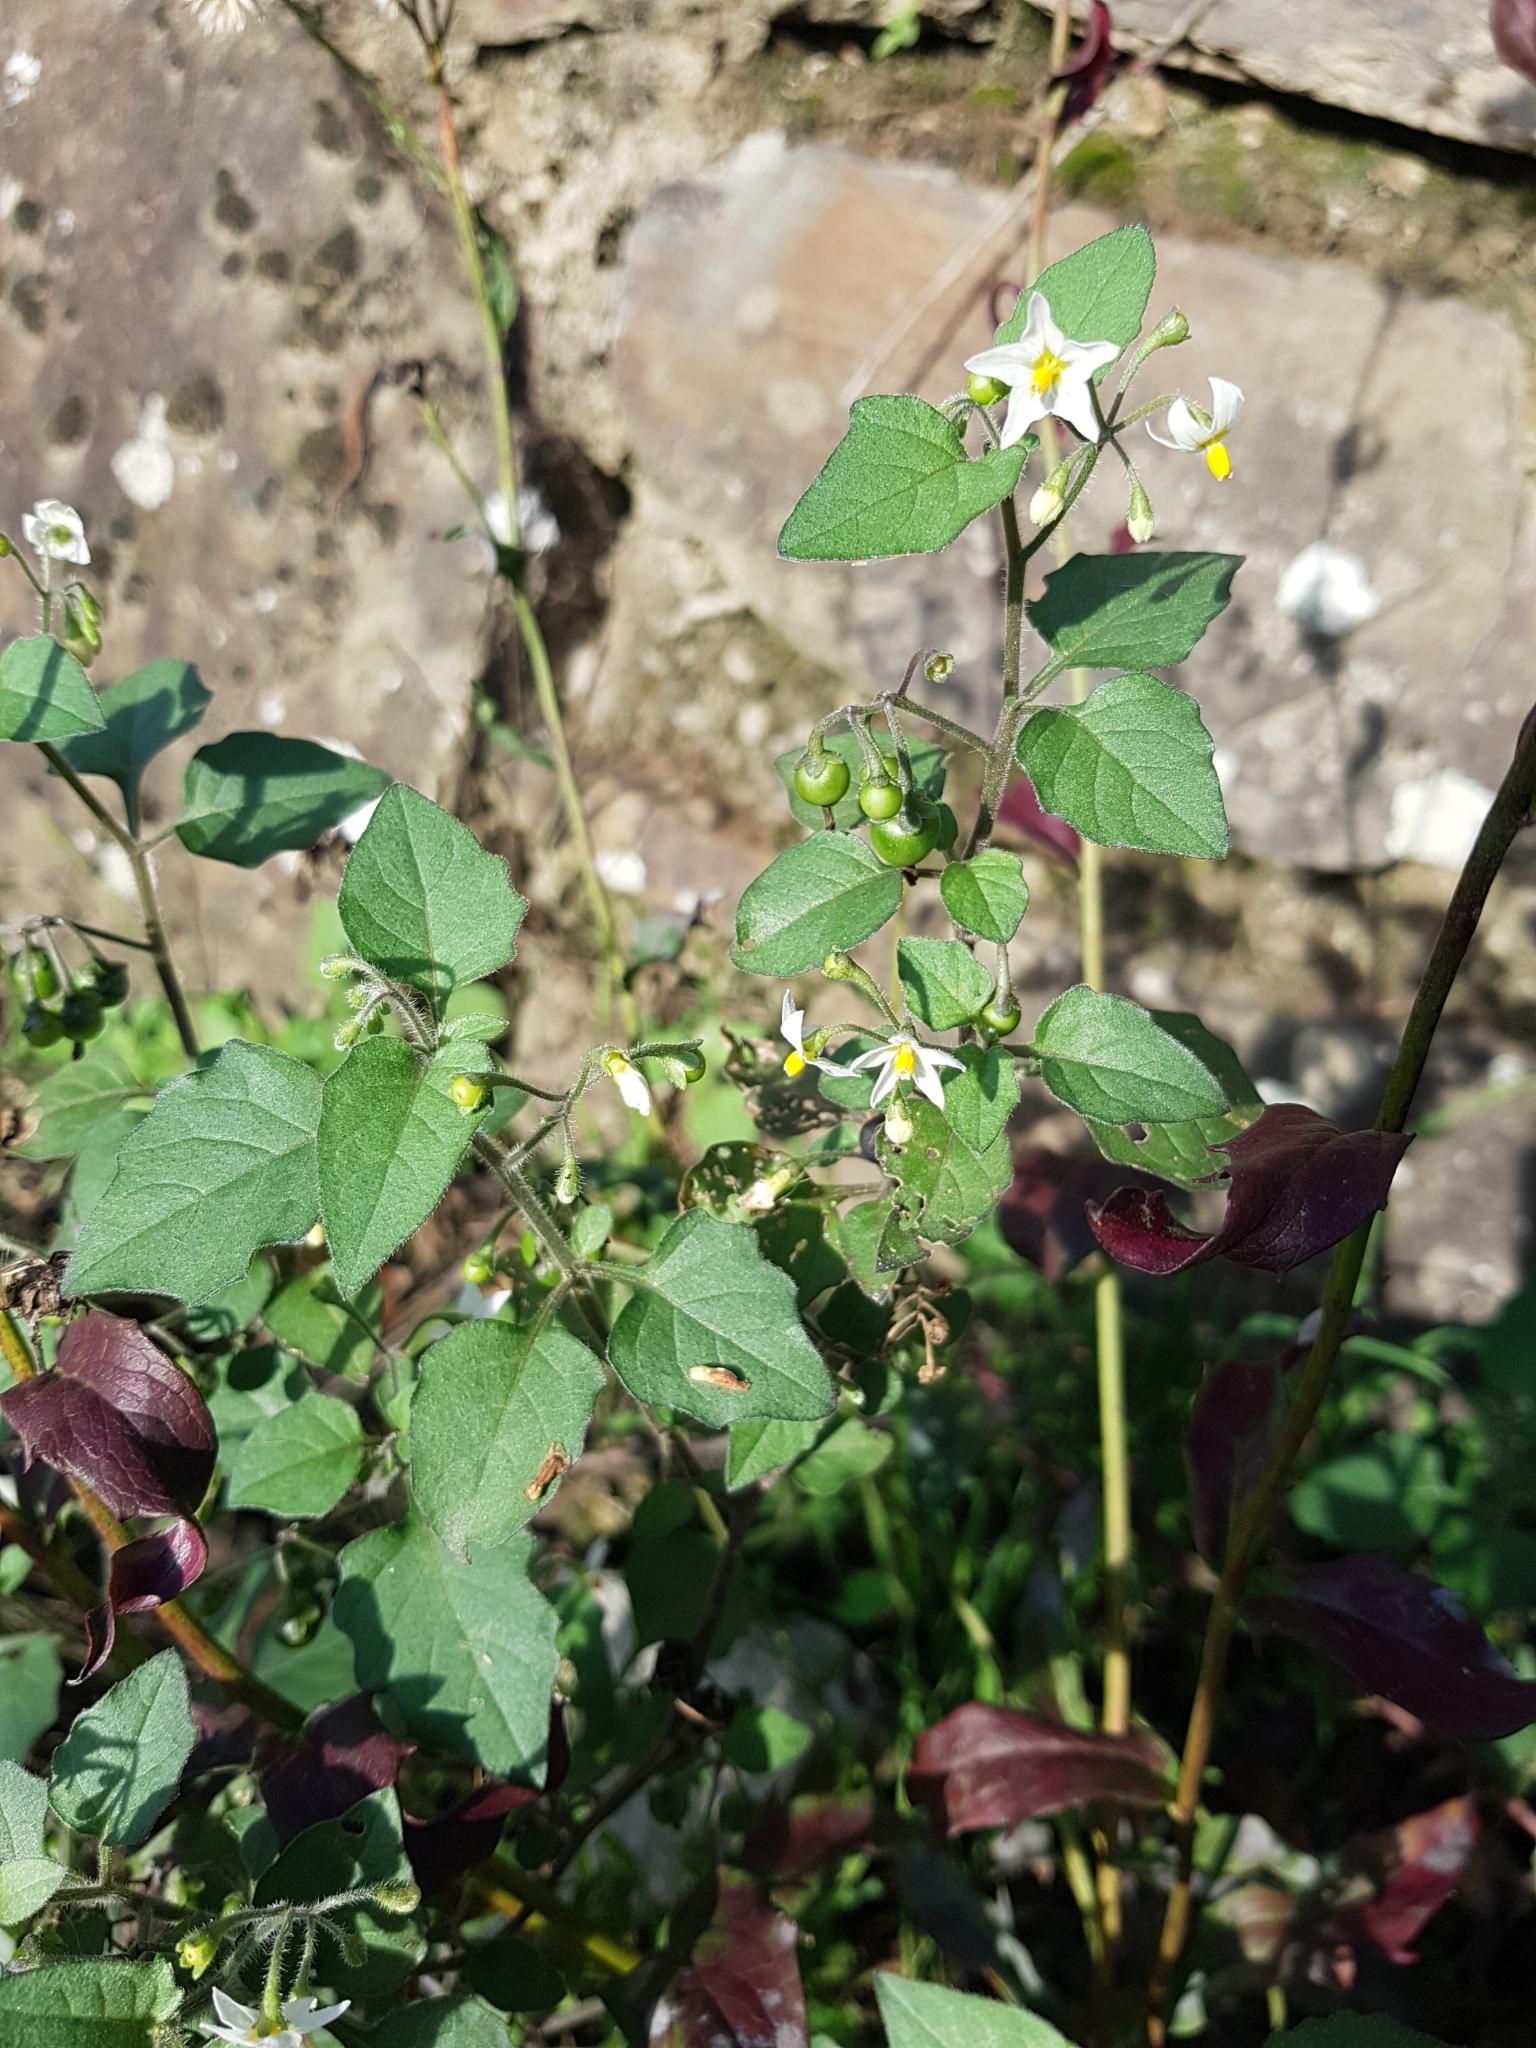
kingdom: Plantae
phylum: Tracheophyta
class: Magnoliopsida
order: Solanales
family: Solanaceae
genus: Solanum
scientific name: Solanum nigrum
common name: Black nightshade
